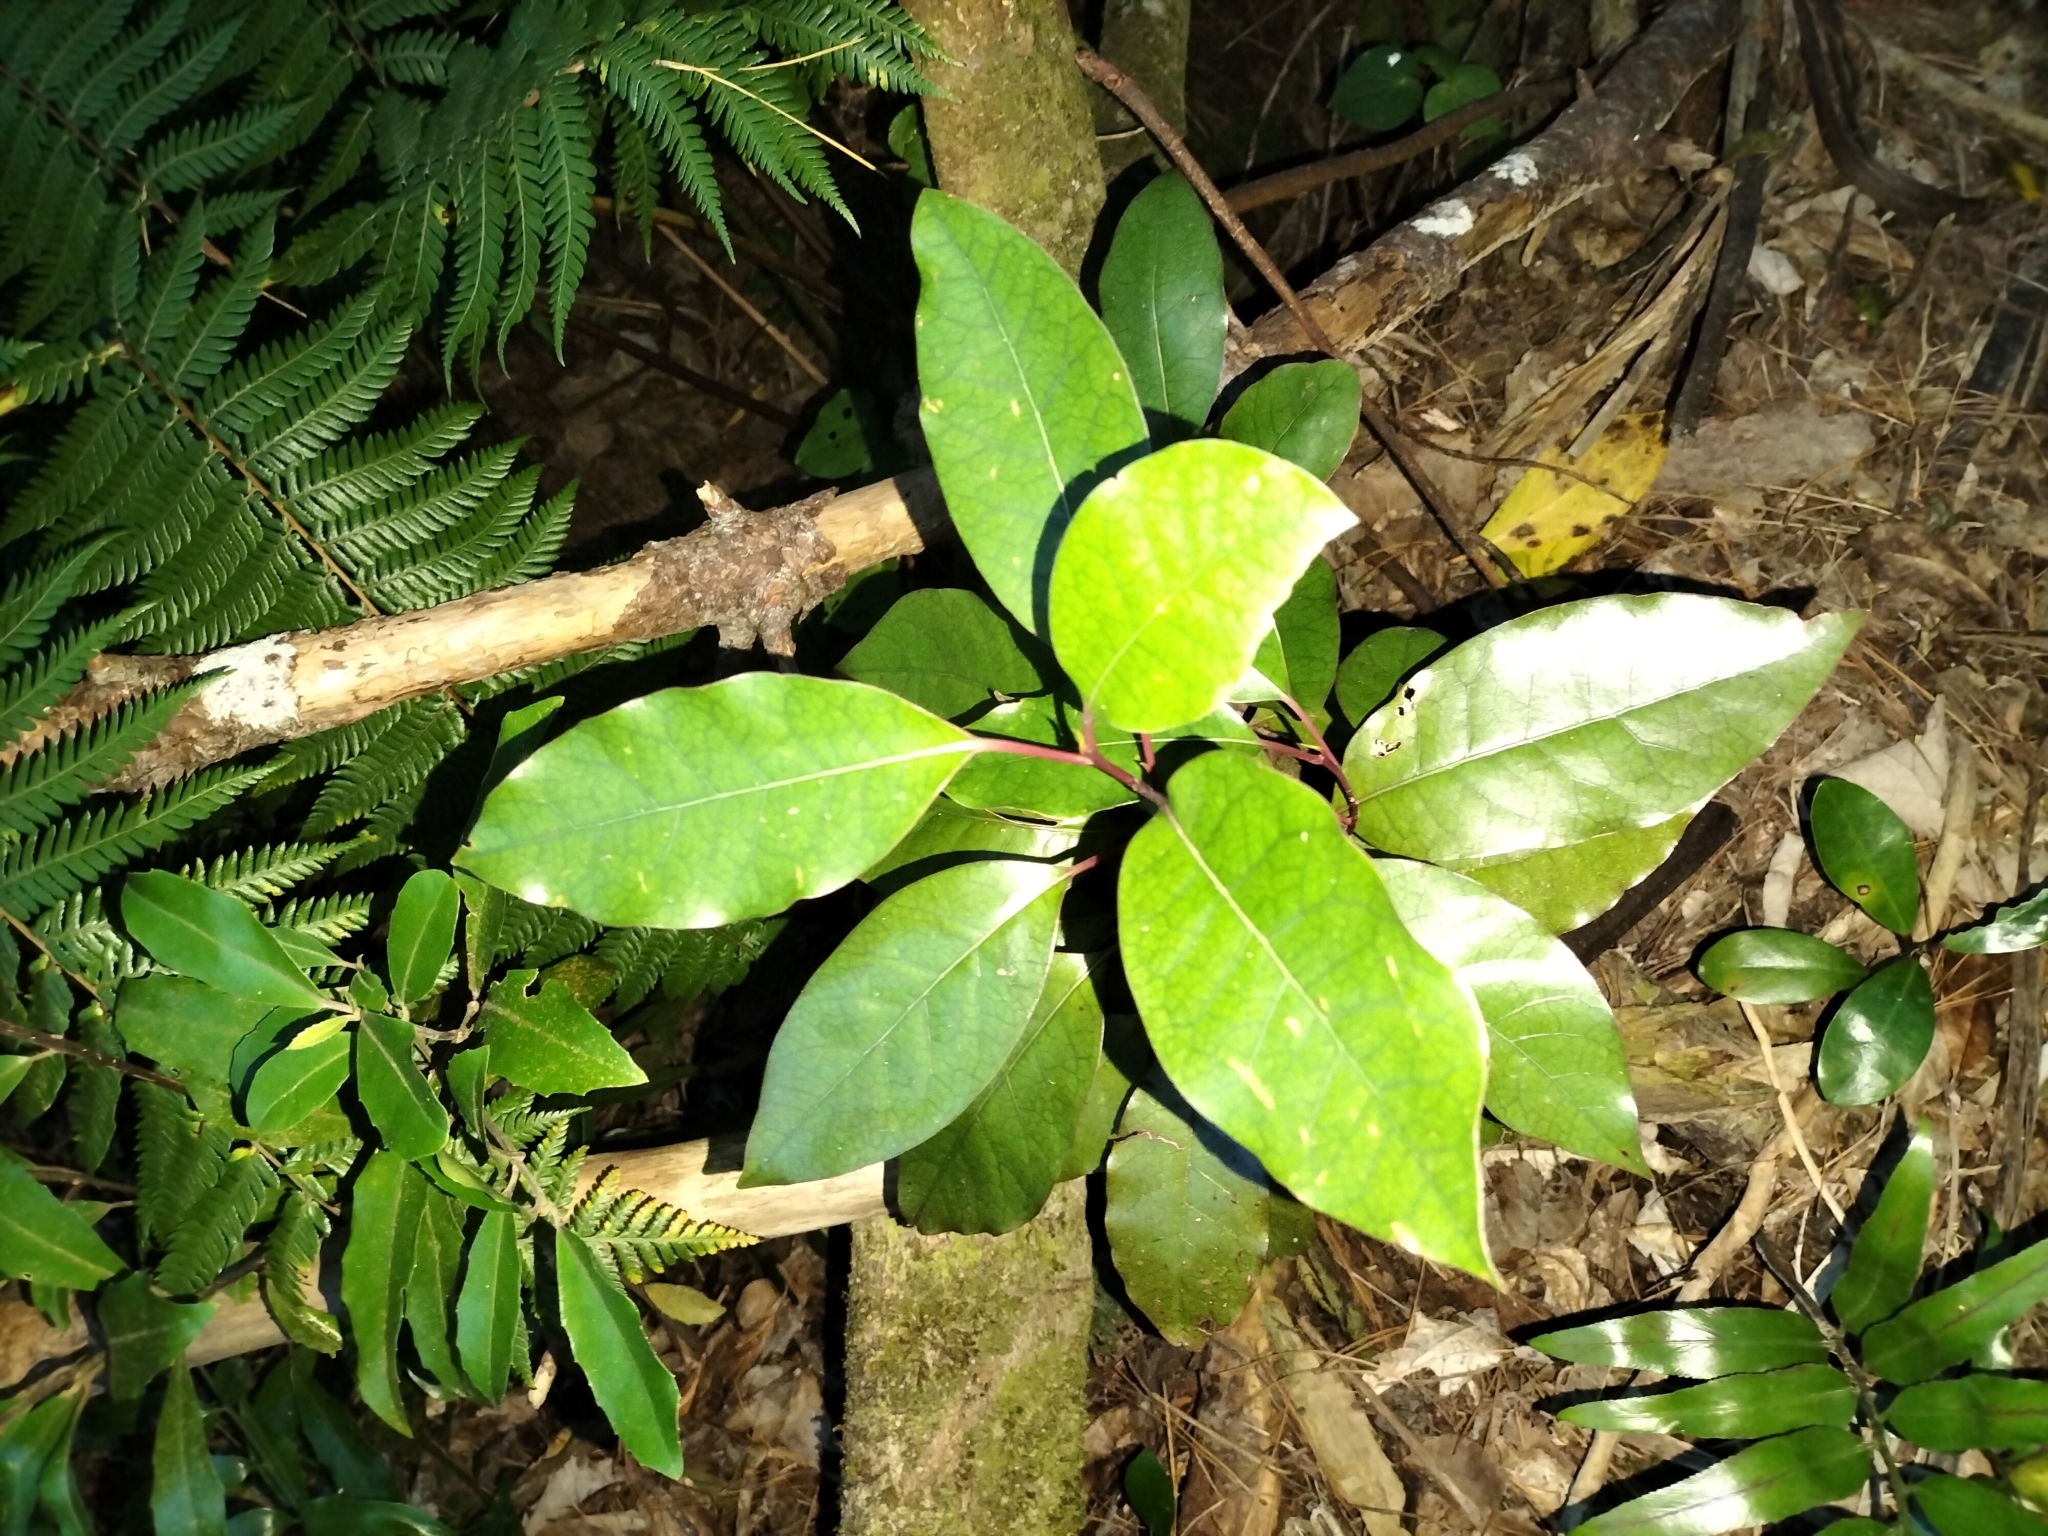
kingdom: Plantae
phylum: Tracheophyta
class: Magnoliopsida
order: Laurales
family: Lauraceae
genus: Litsea
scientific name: Litsea calicaris
